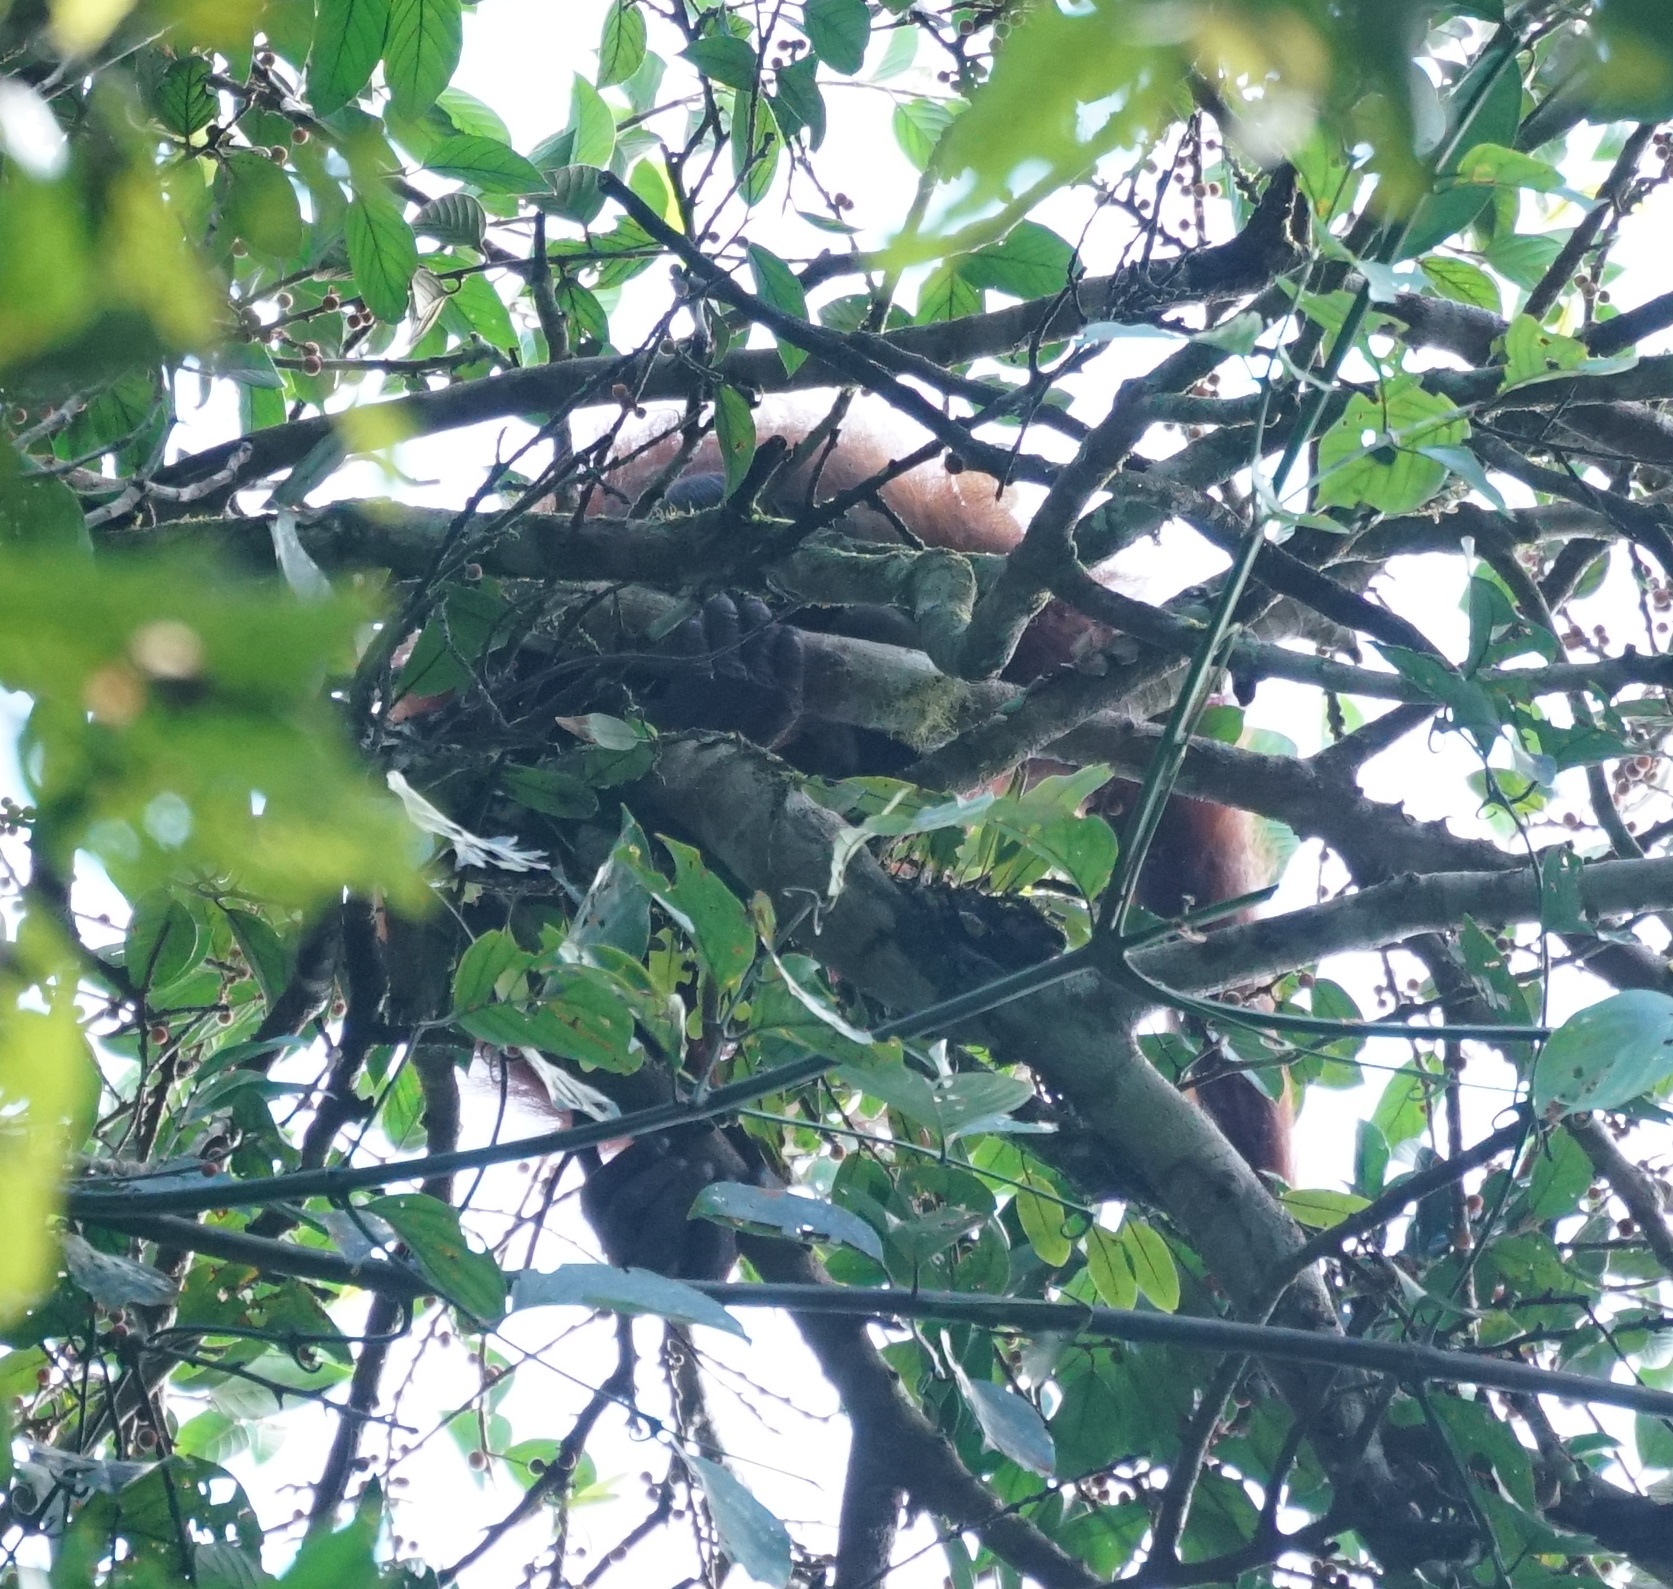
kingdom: Animalia
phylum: Chordata
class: Mammalia
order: Primates
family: Hominidae
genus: Pongo
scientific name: Pongo pygmaeus
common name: Bornean orangutan
